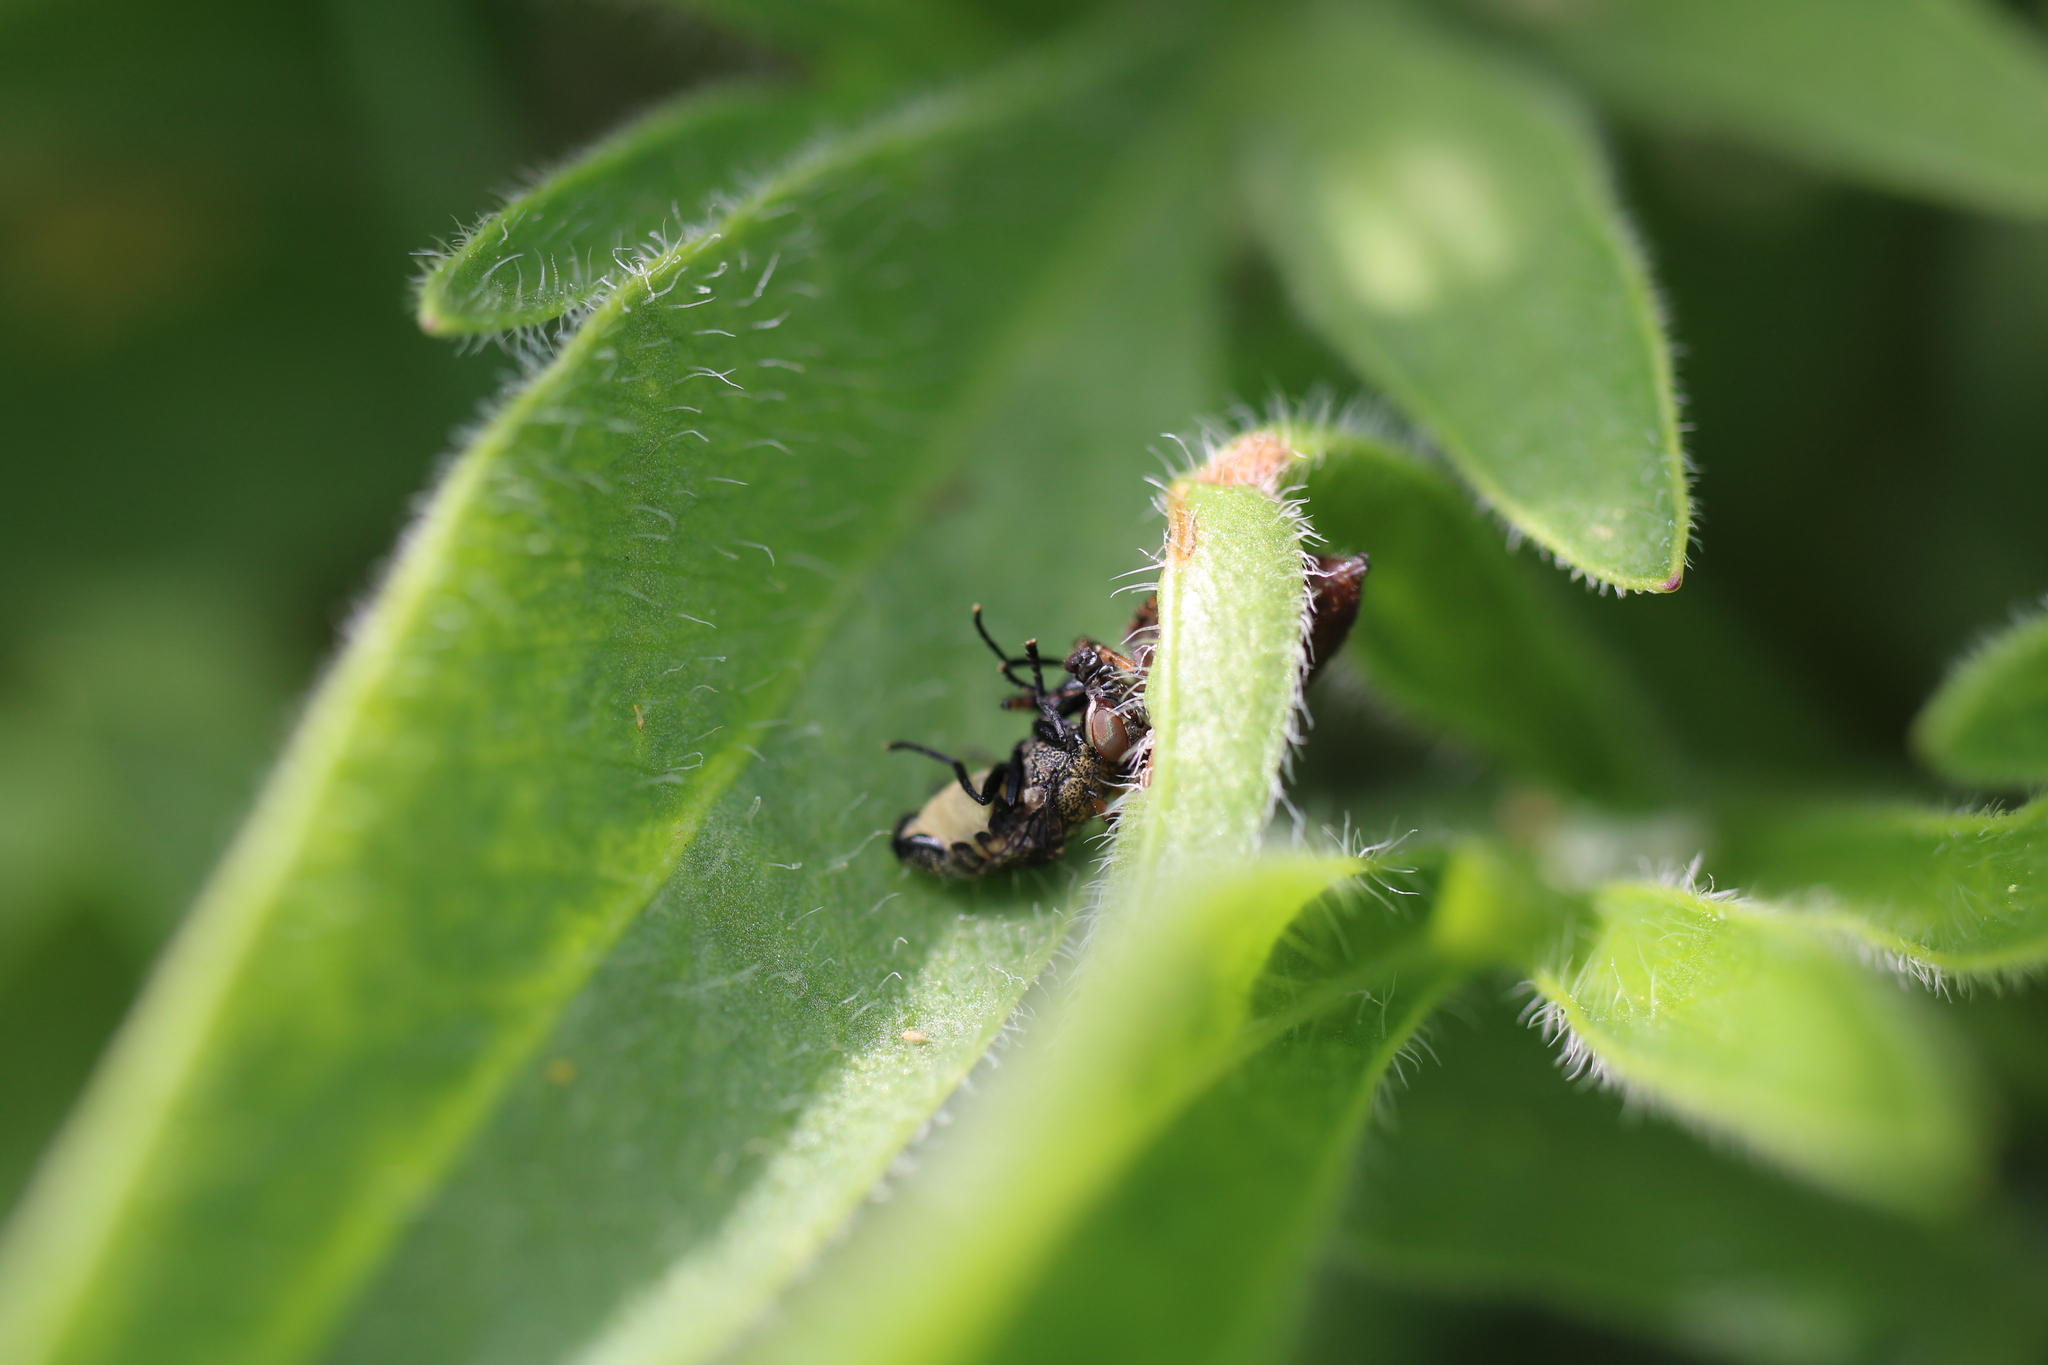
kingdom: Animalia
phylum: Arthropoda
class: Insecta
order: Diptera
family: Platystomatidae
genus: Platystoma
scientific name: Platystoma seminationis
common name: Fly
